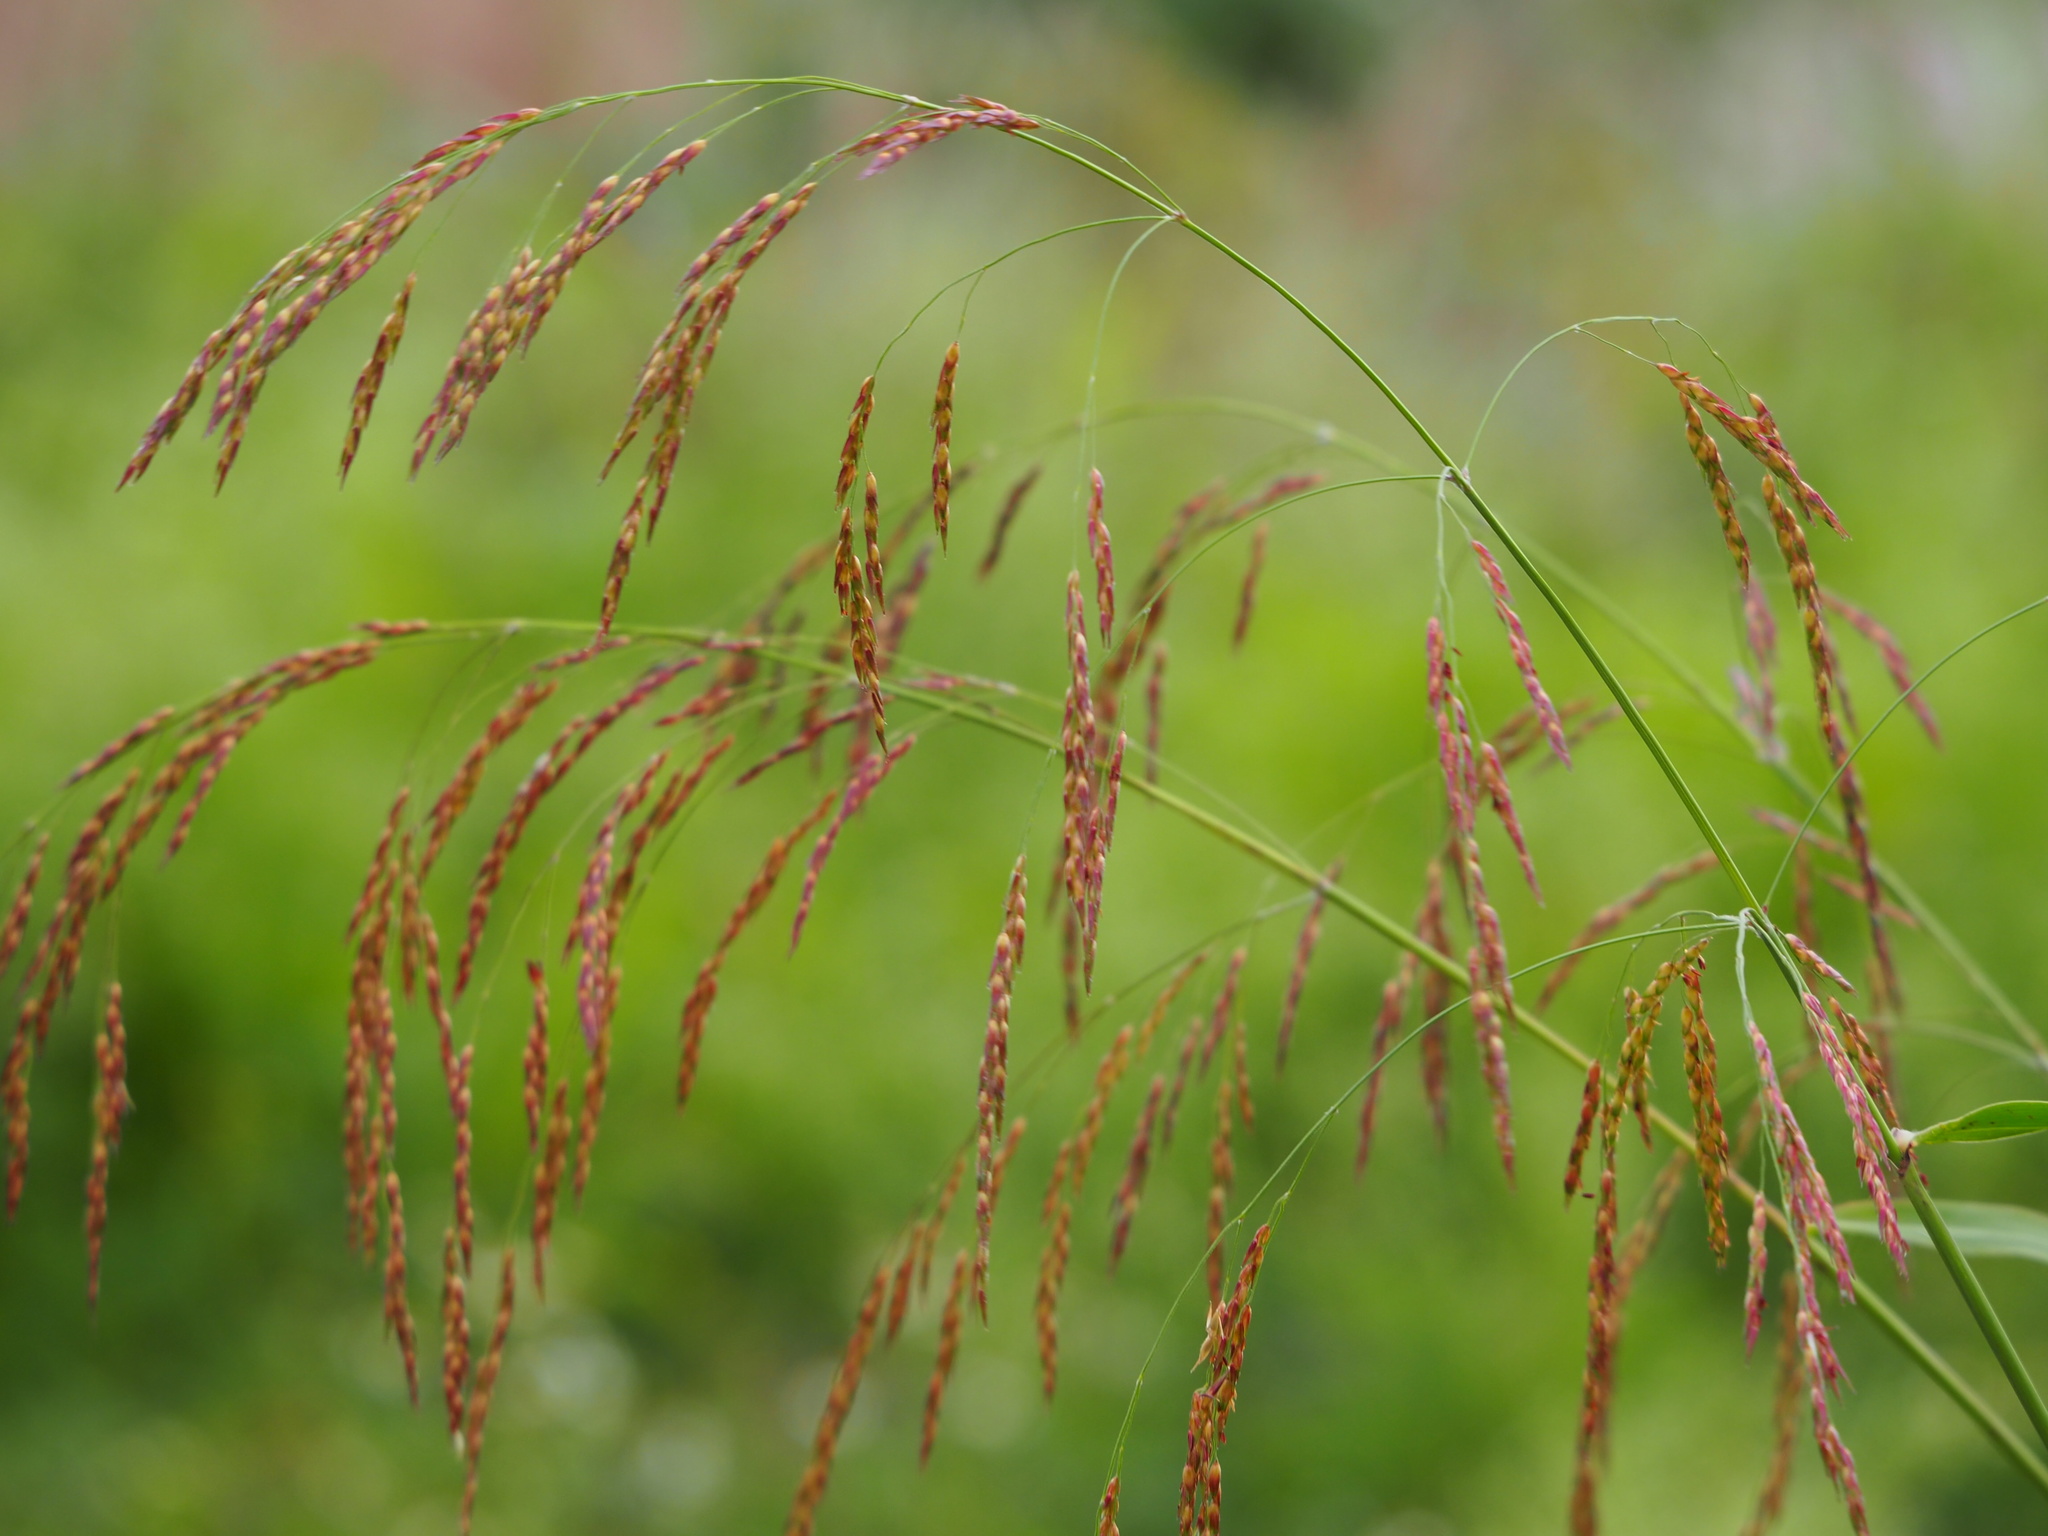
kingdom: Plantae
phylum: Tracheophyta
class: Liliopsida
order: Poales
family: Poaceae
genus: Sorghum
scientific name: Sorghum arundinaceum
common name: Sorghum
